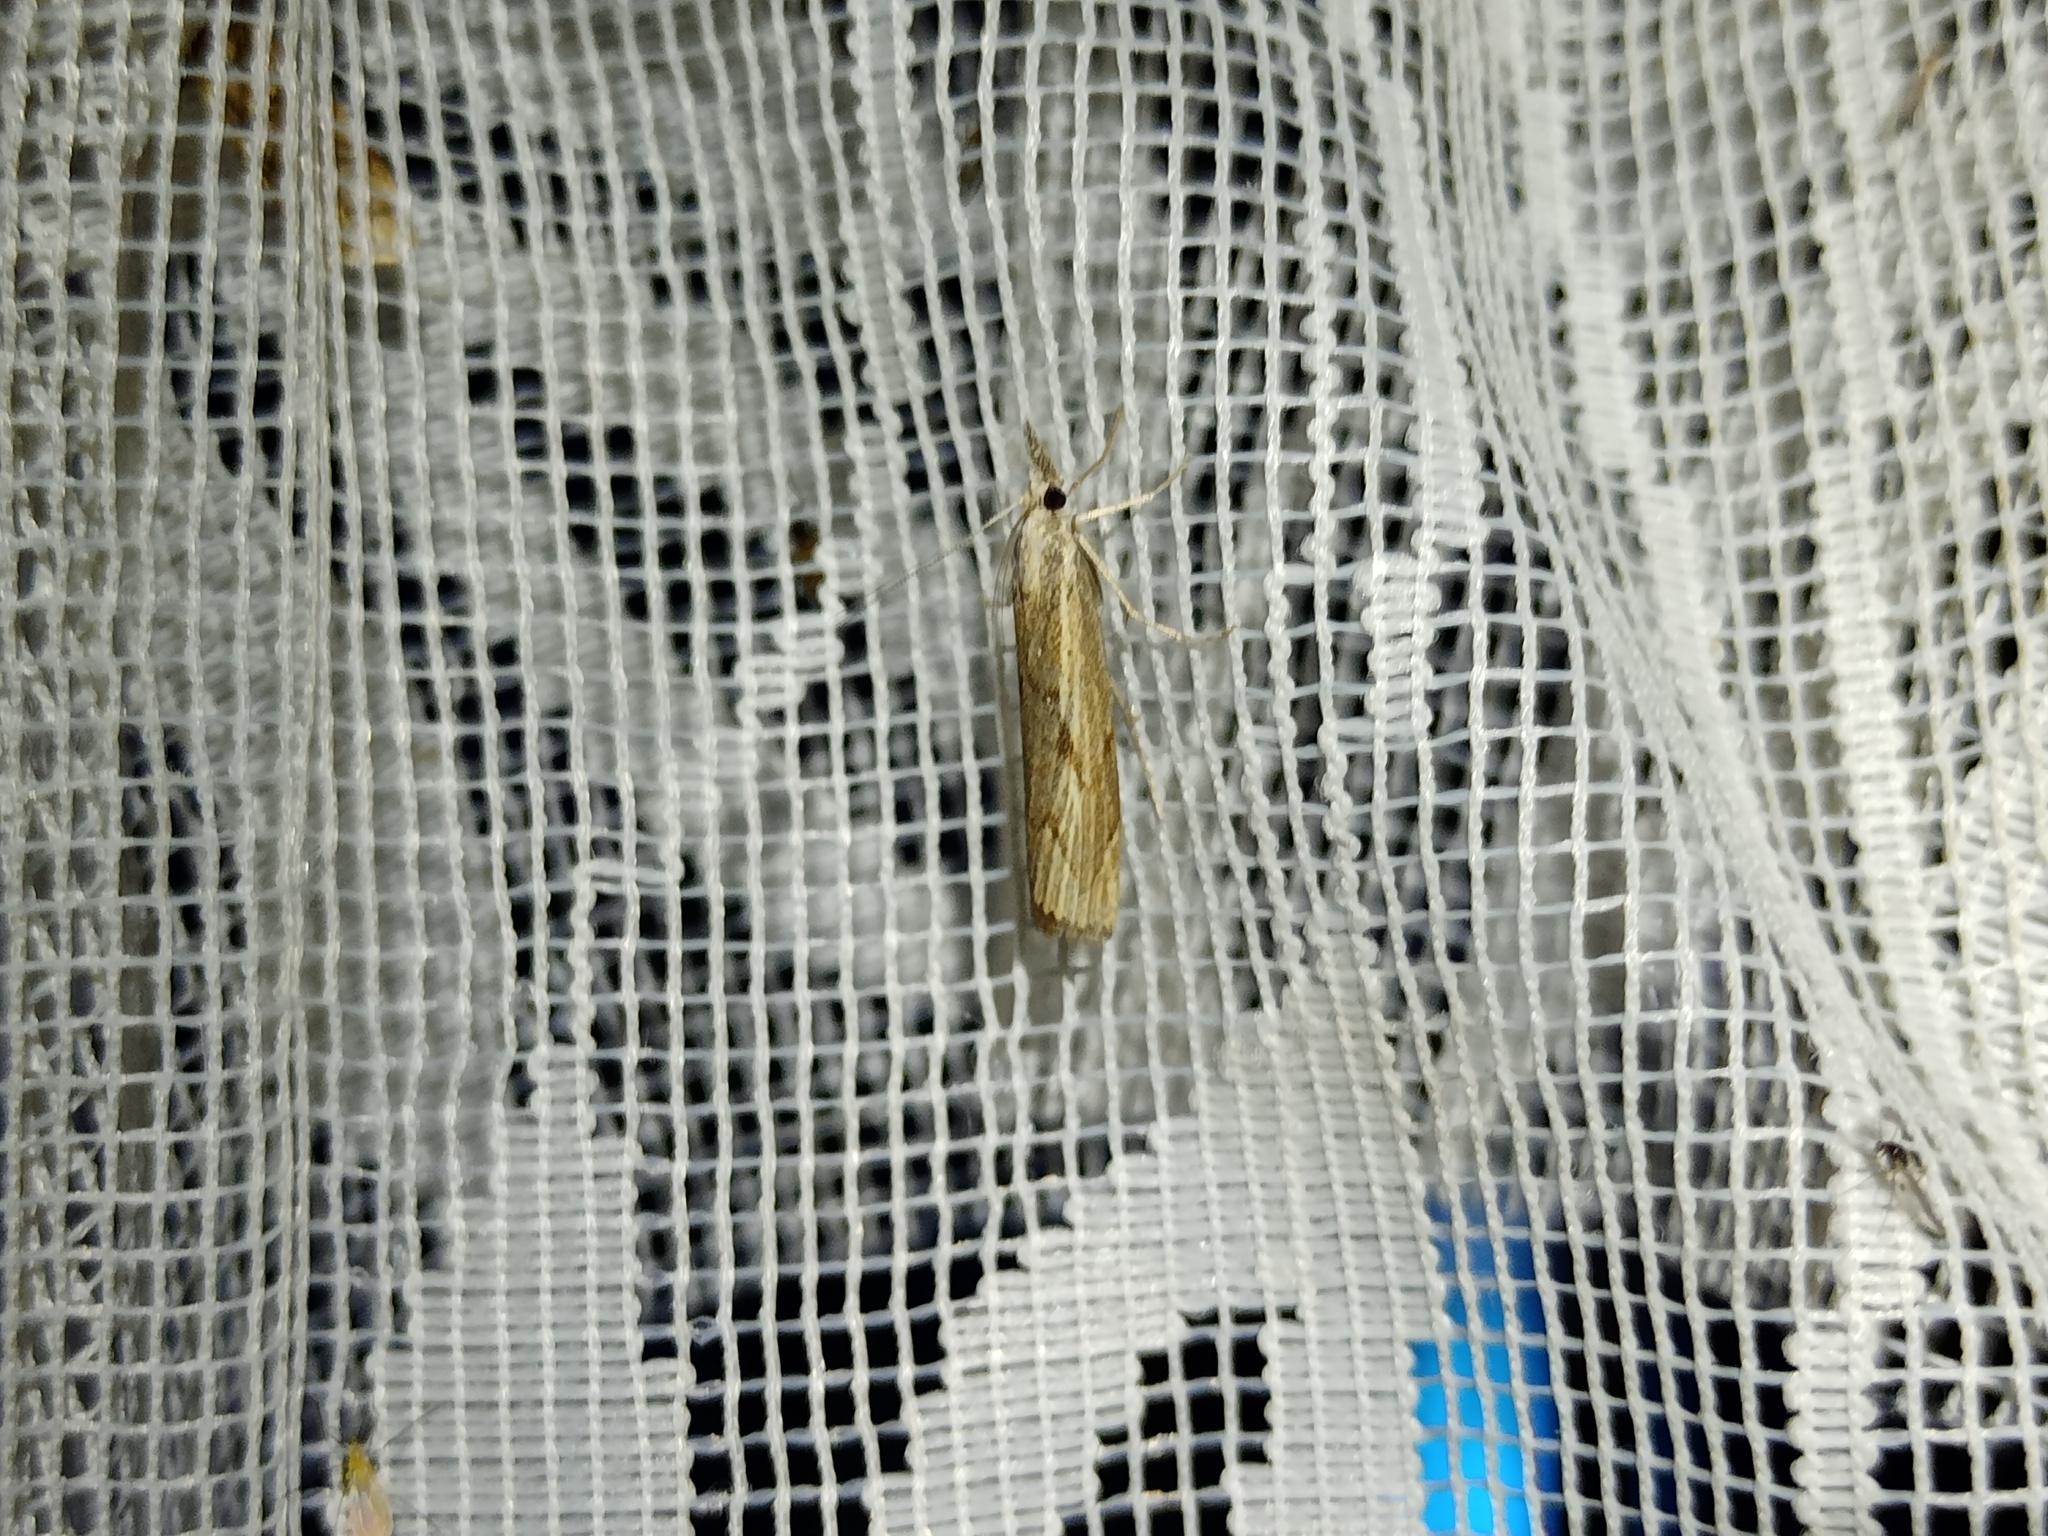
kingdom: Animalia
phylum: Arthropoda
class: Insecta
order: Lepidoptera
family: Crambidae
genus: Agriphila
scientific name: Agriphila geniculea
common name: Elbow-stripe grass-veneer
